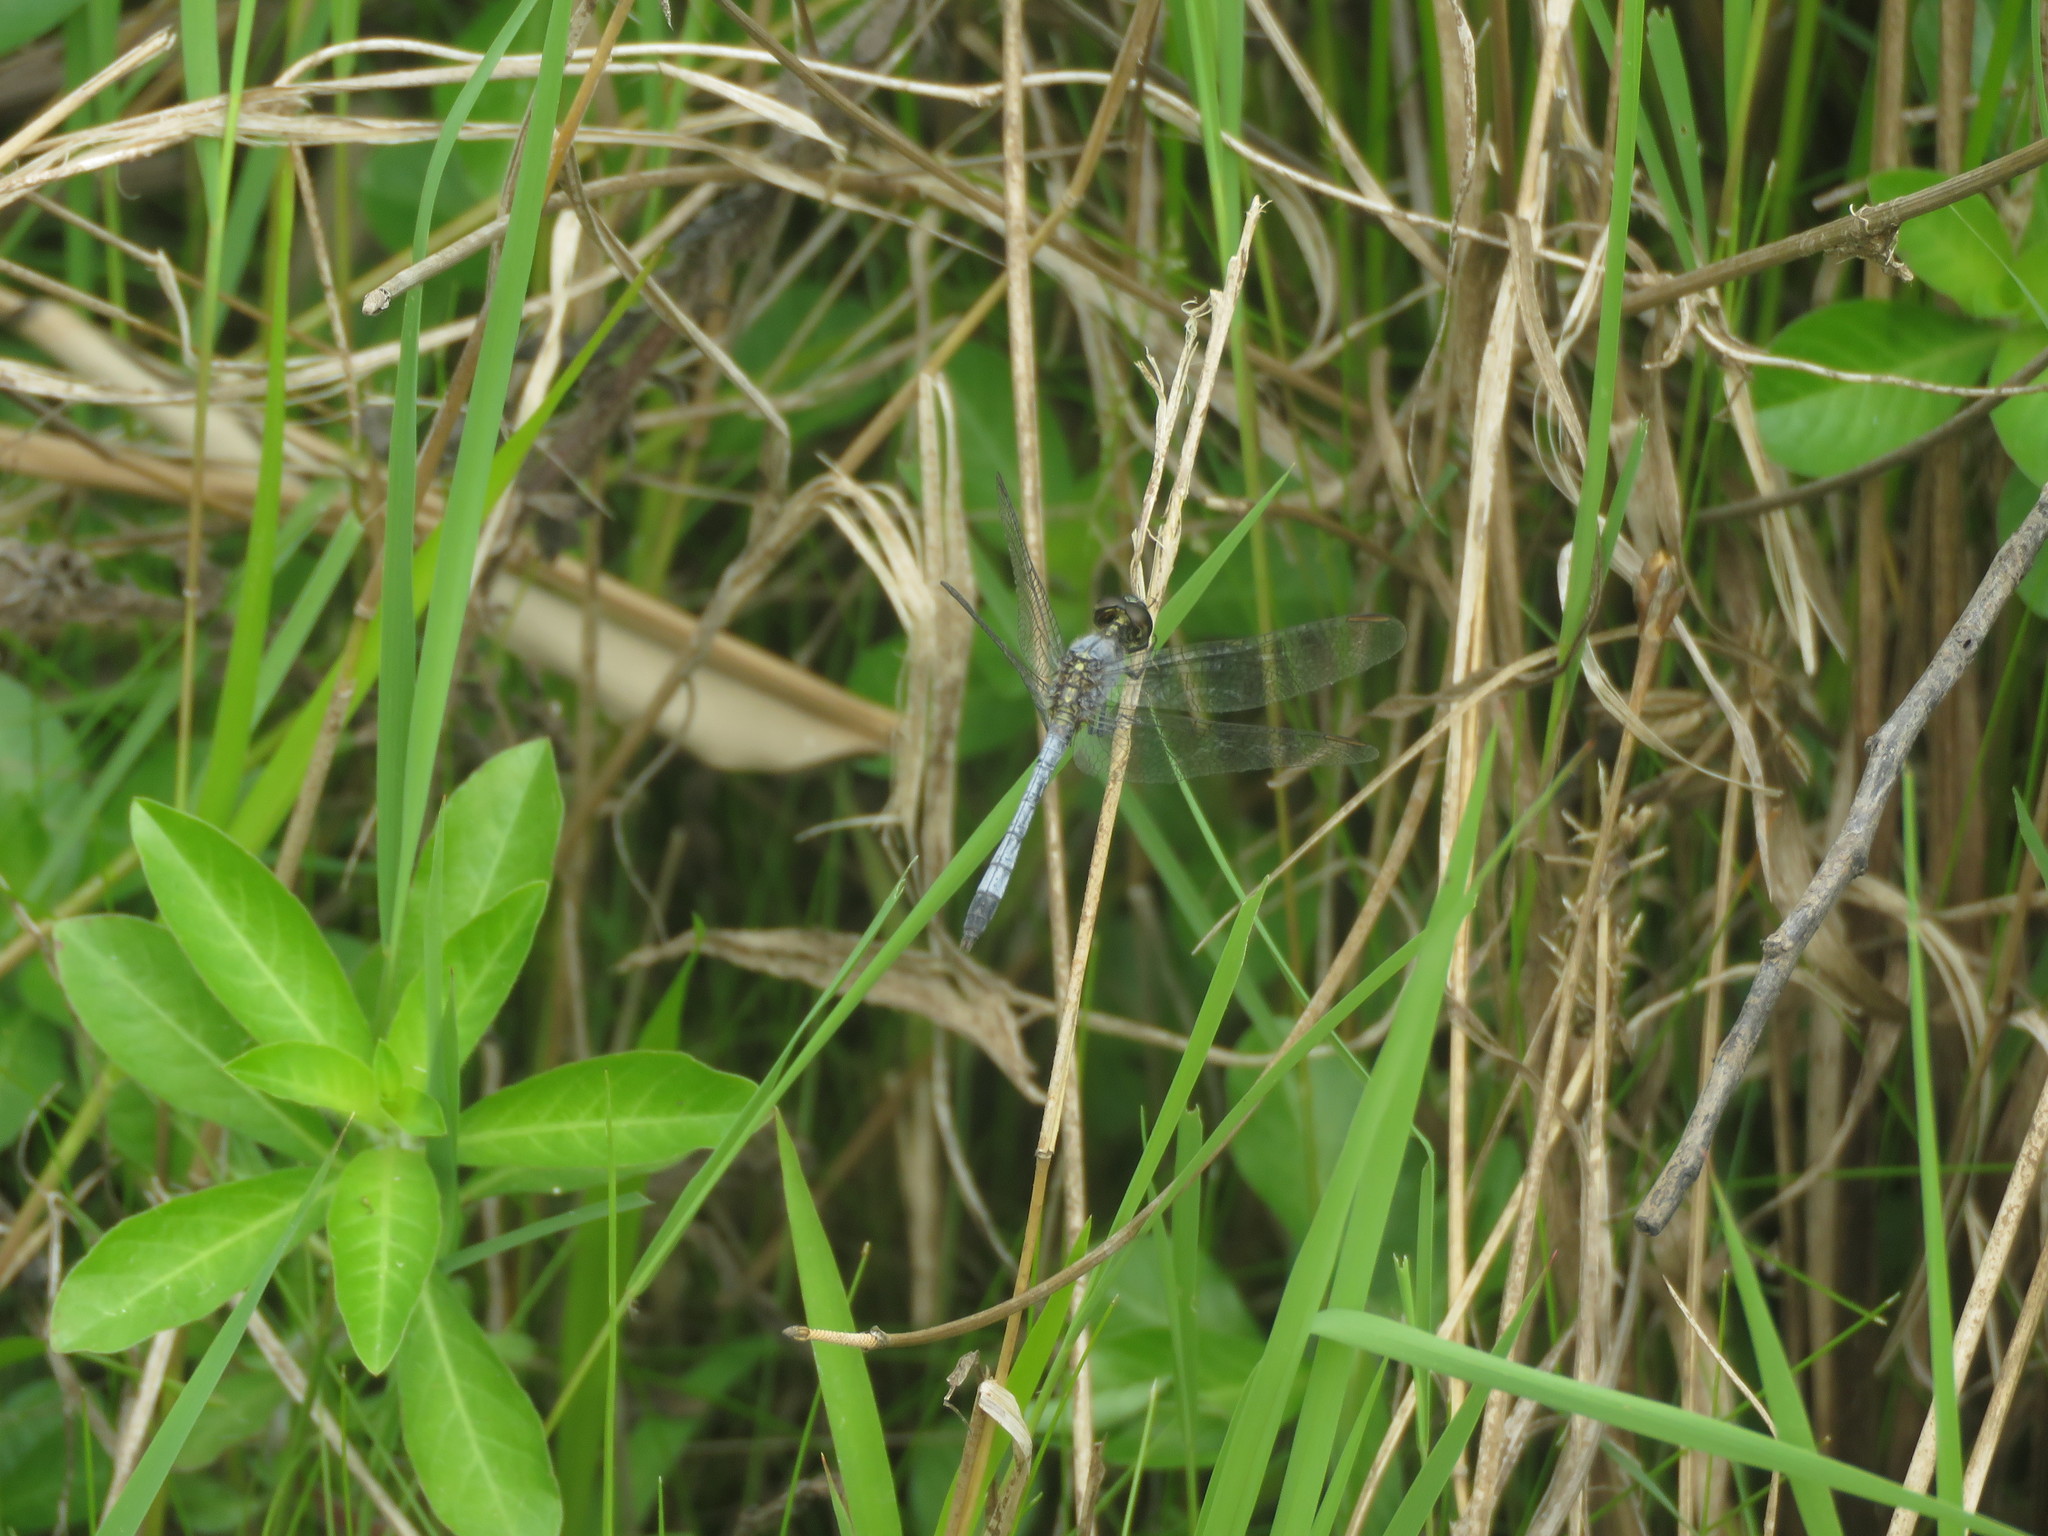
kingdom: Animalia
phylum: Arthropoda
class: Insecta
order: Odonata
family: Libellulidae
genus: Erythrodiplax
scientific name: Erythrodiplax paraguayensis
